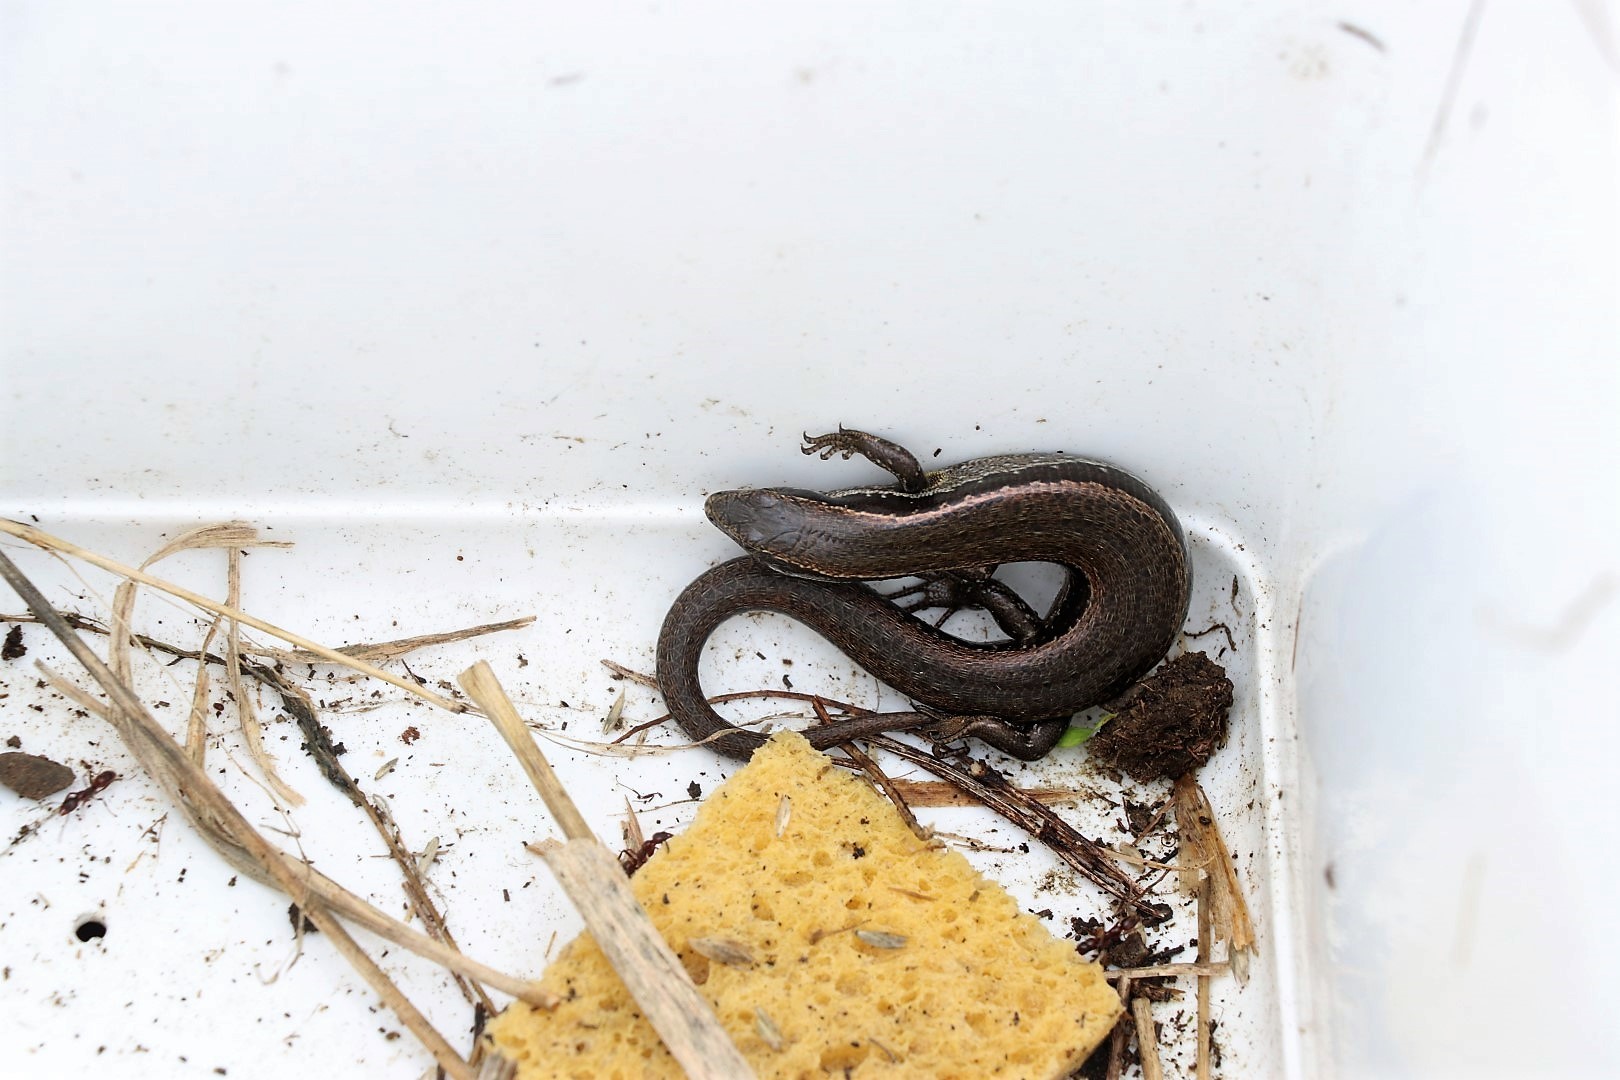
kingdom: Animalia
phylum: Chordata
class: Squamata
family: Scincidae
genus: Oligosoma
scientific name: Oligosoma polychroma
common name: Common new zealand skink
